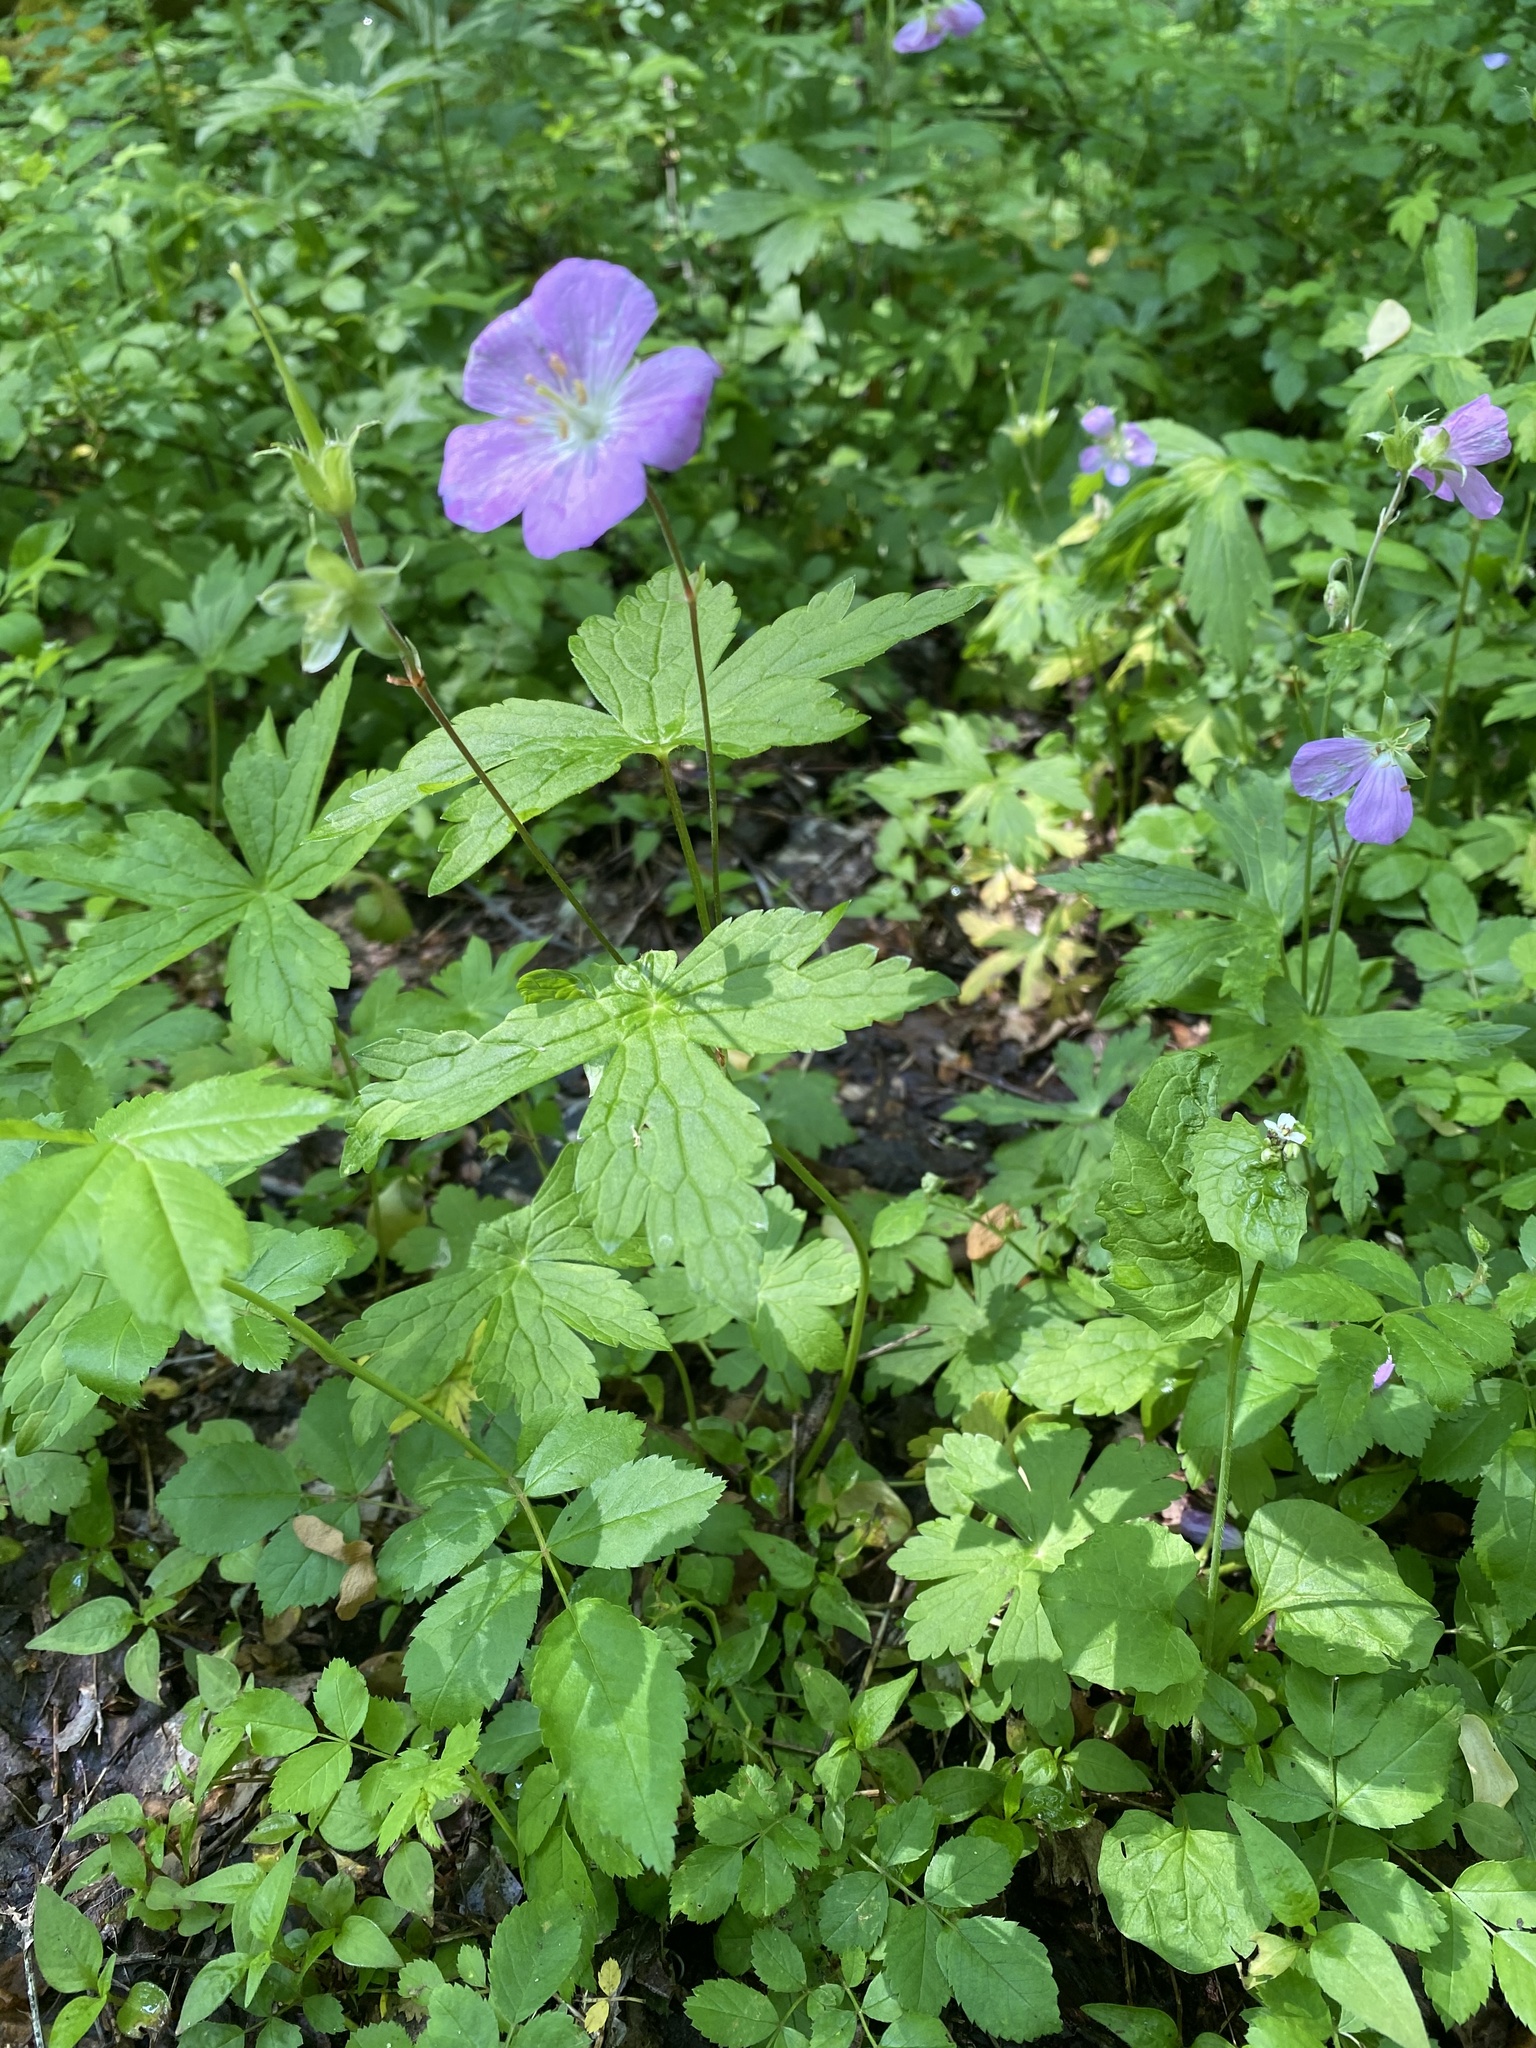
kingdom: Plantae
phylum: Tracheophyta
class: Magnoliopsida
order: Geraniales
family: Geraniaceae
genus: Geranium
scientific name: Geranium maculatum
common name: Spotted geranium
